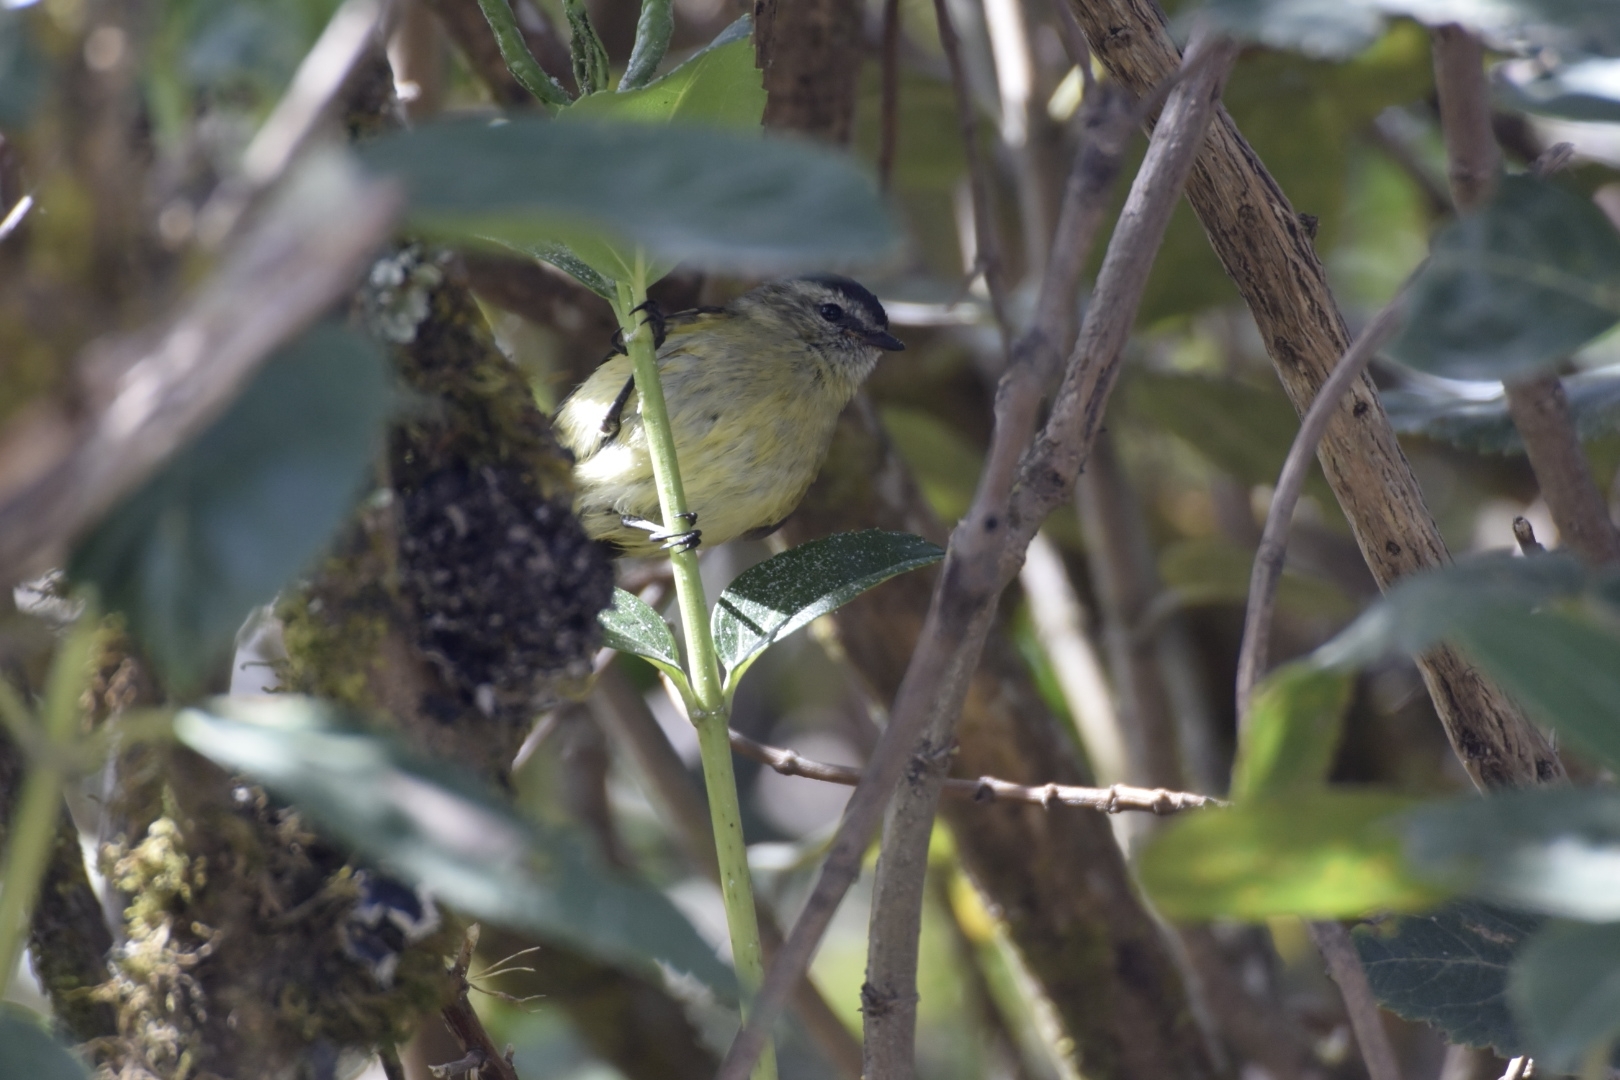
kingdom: Animalia
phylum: Chordata
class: Aves
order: Passeriformes
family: Tyrannidae
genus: Phyllomyias
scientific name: Phyllomyias nigrocapillus
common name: Black-capped tyrannulet
